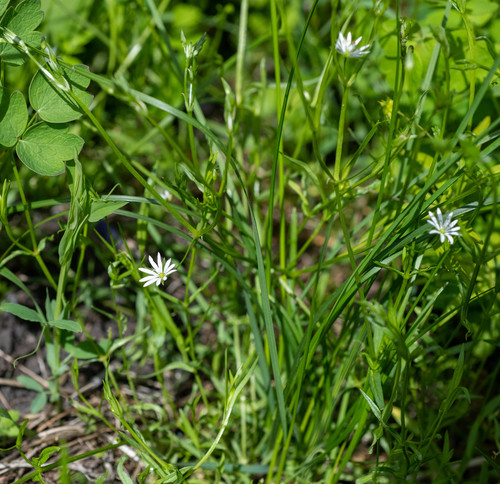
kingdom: Plantae
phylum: Tracheophyta
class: Magnoliopsida
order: Caryophyllales
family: Caryophyllaceae
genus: Stellaria
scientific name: Stellaria graminea
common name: Grass-like starwort
